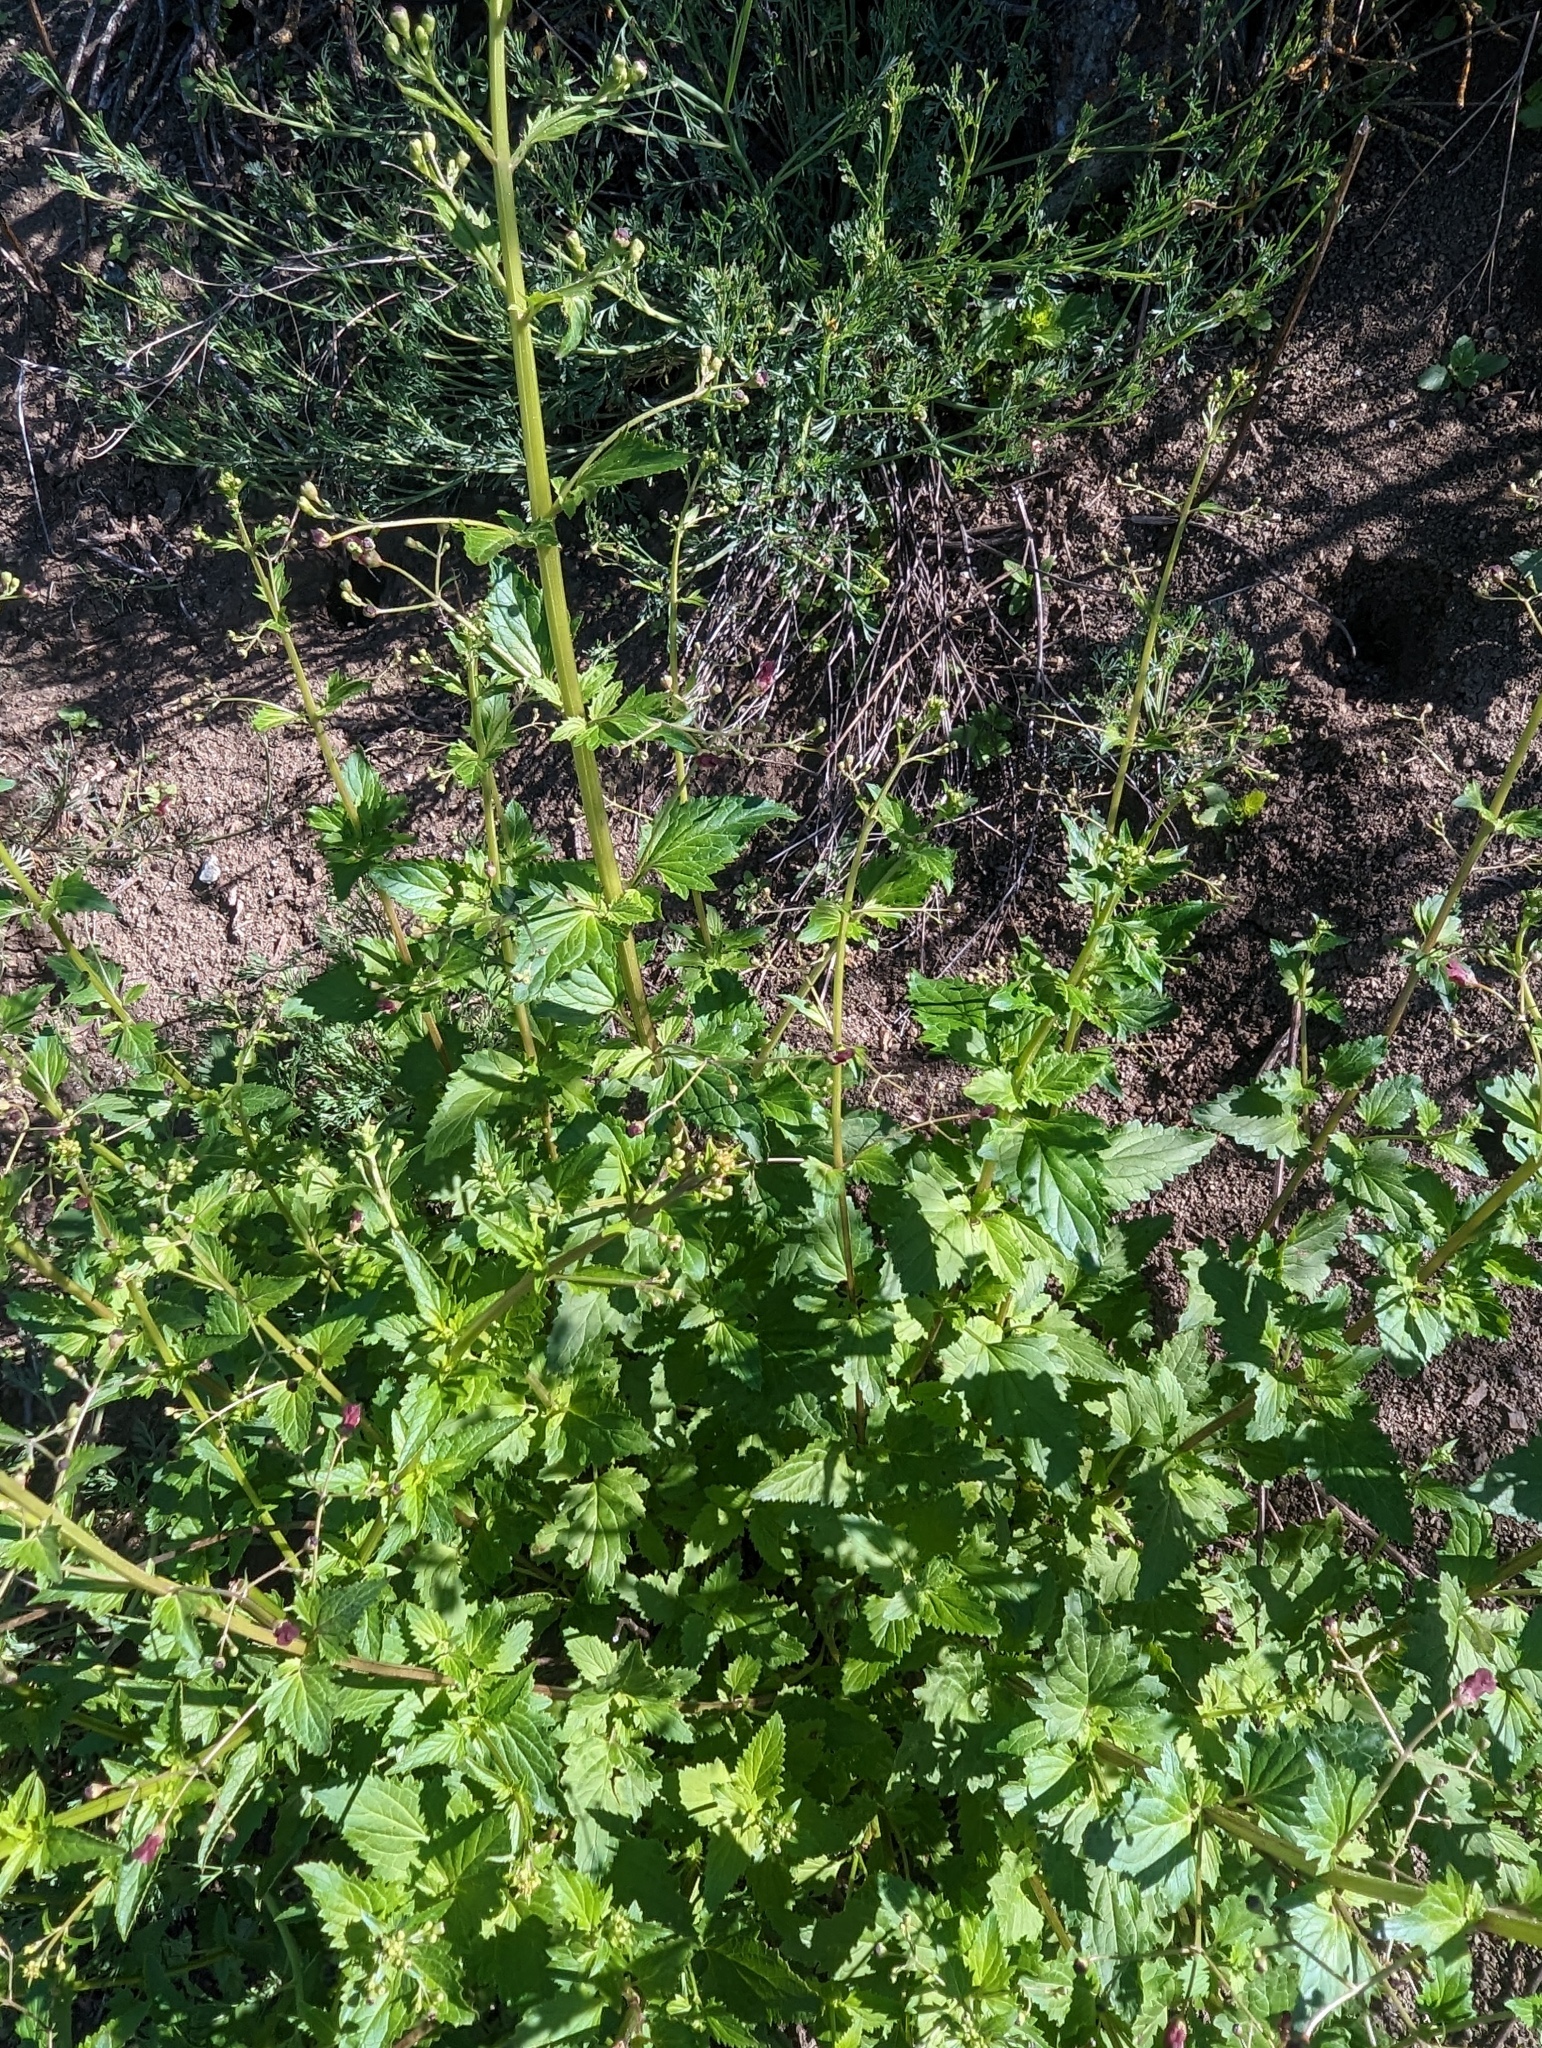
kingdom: Plantae
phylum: Tracheophyta
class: Magnoliopsida
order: Lamiales
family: Scrophulariaceae
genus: Scrophularia
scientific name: Scrophularia californica
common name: California figwort
